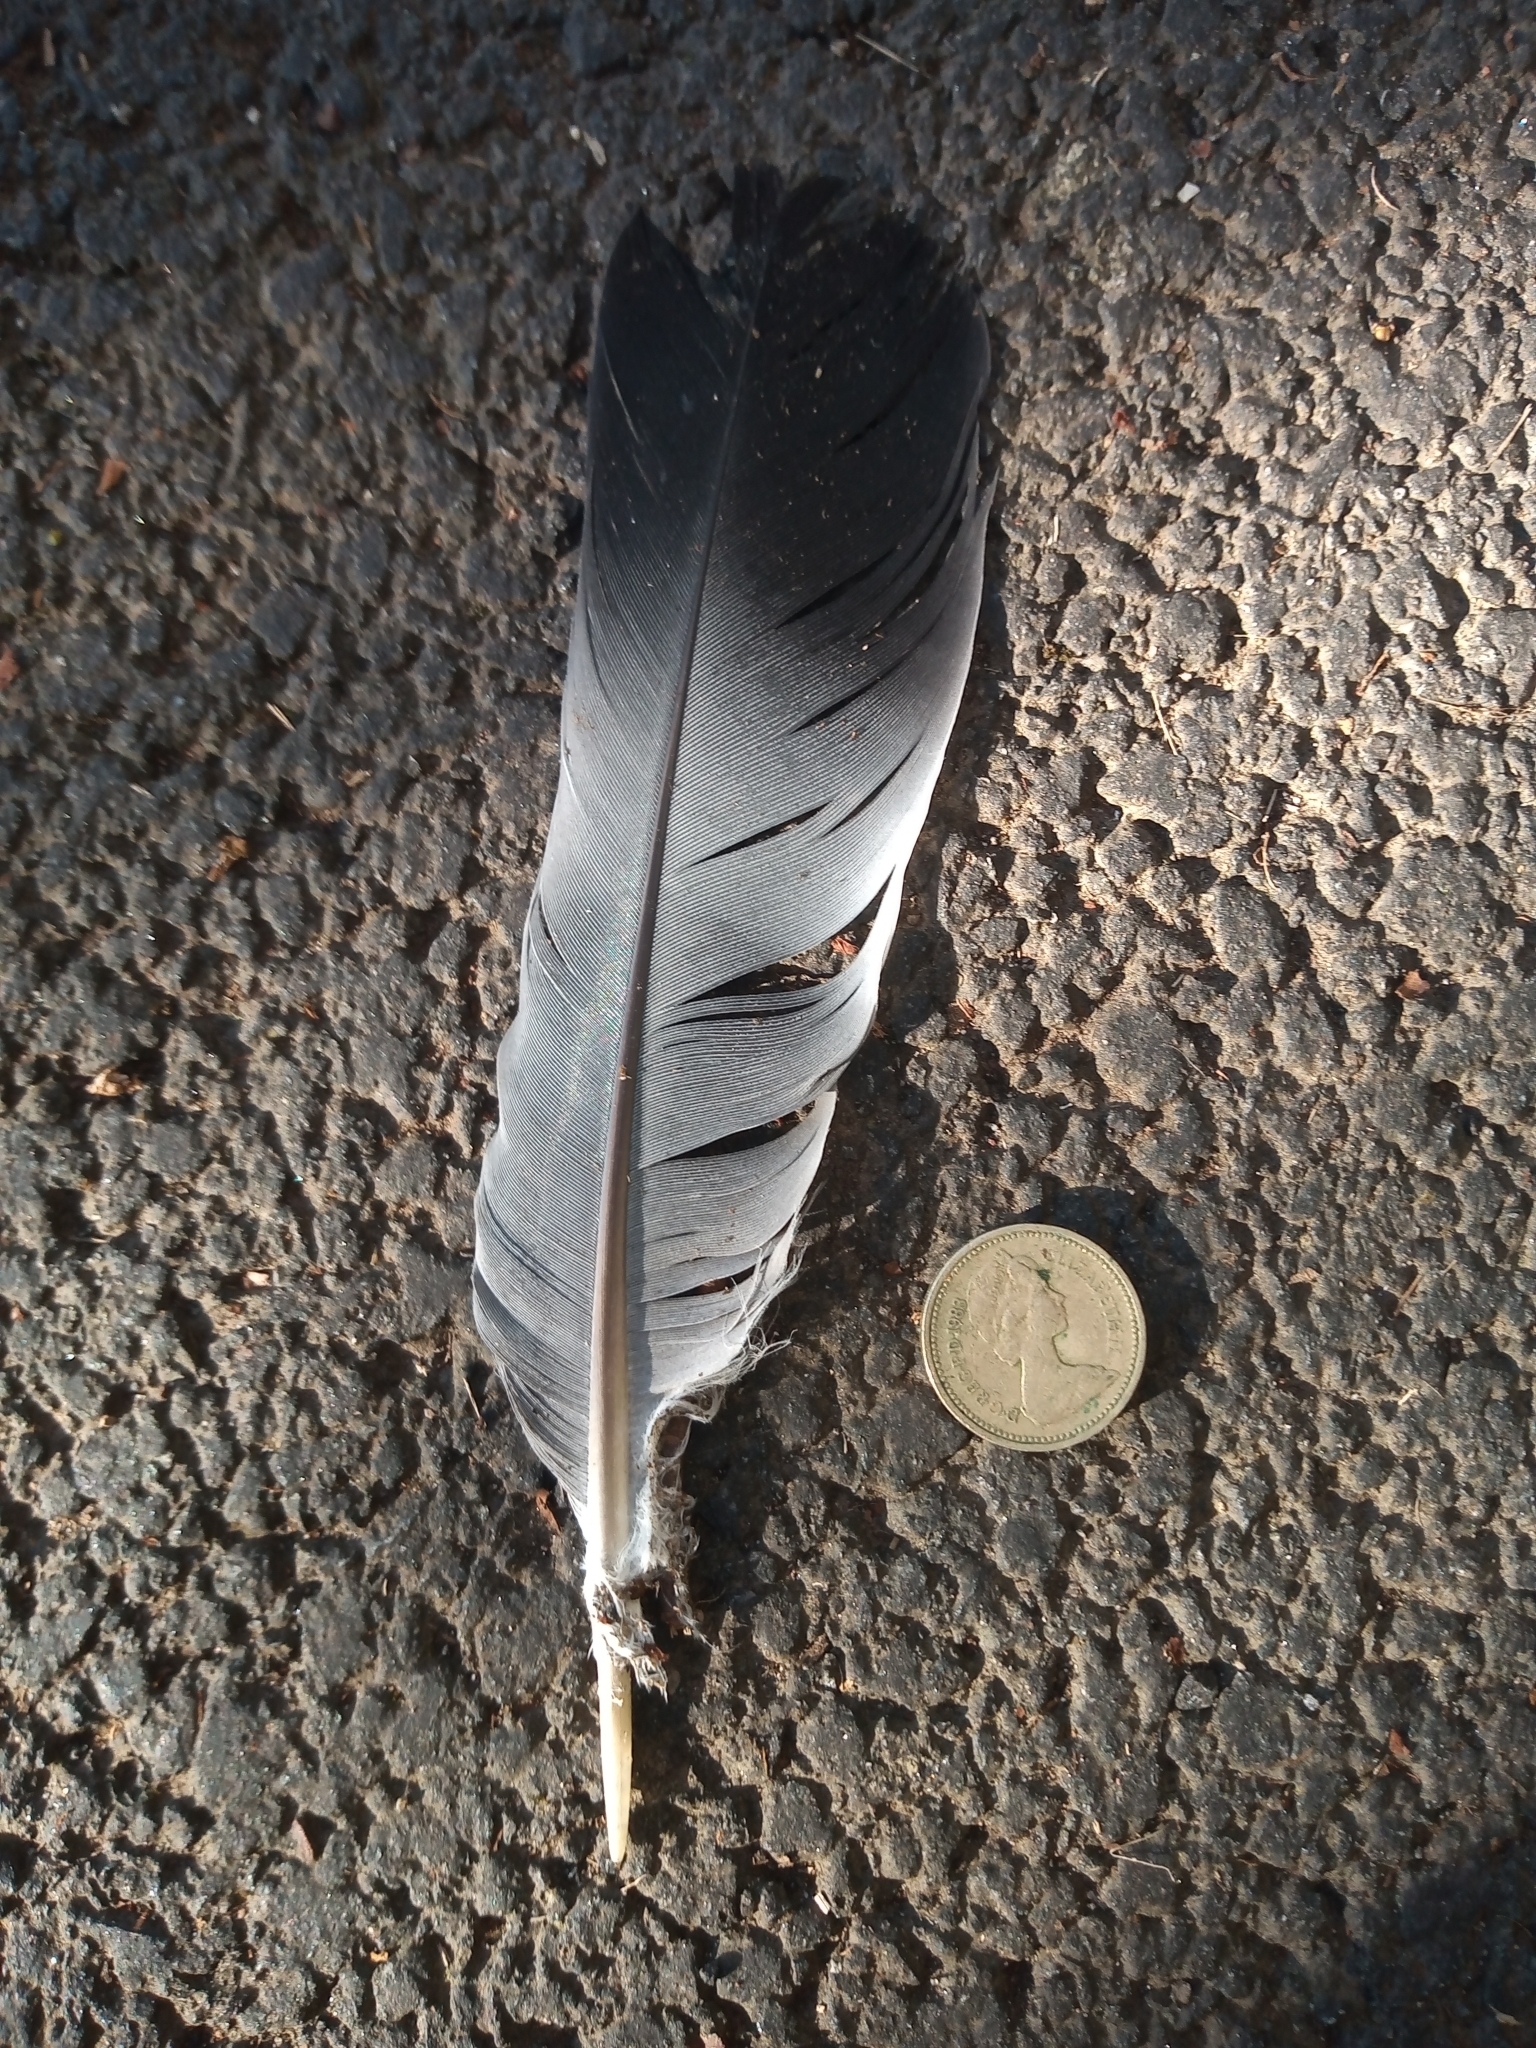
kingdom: Animalia
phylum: Chordata
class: Aves
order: Columbiformes
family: Columbidae
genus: Columba
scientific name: Columba palumbus
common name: Common wood pigeon
